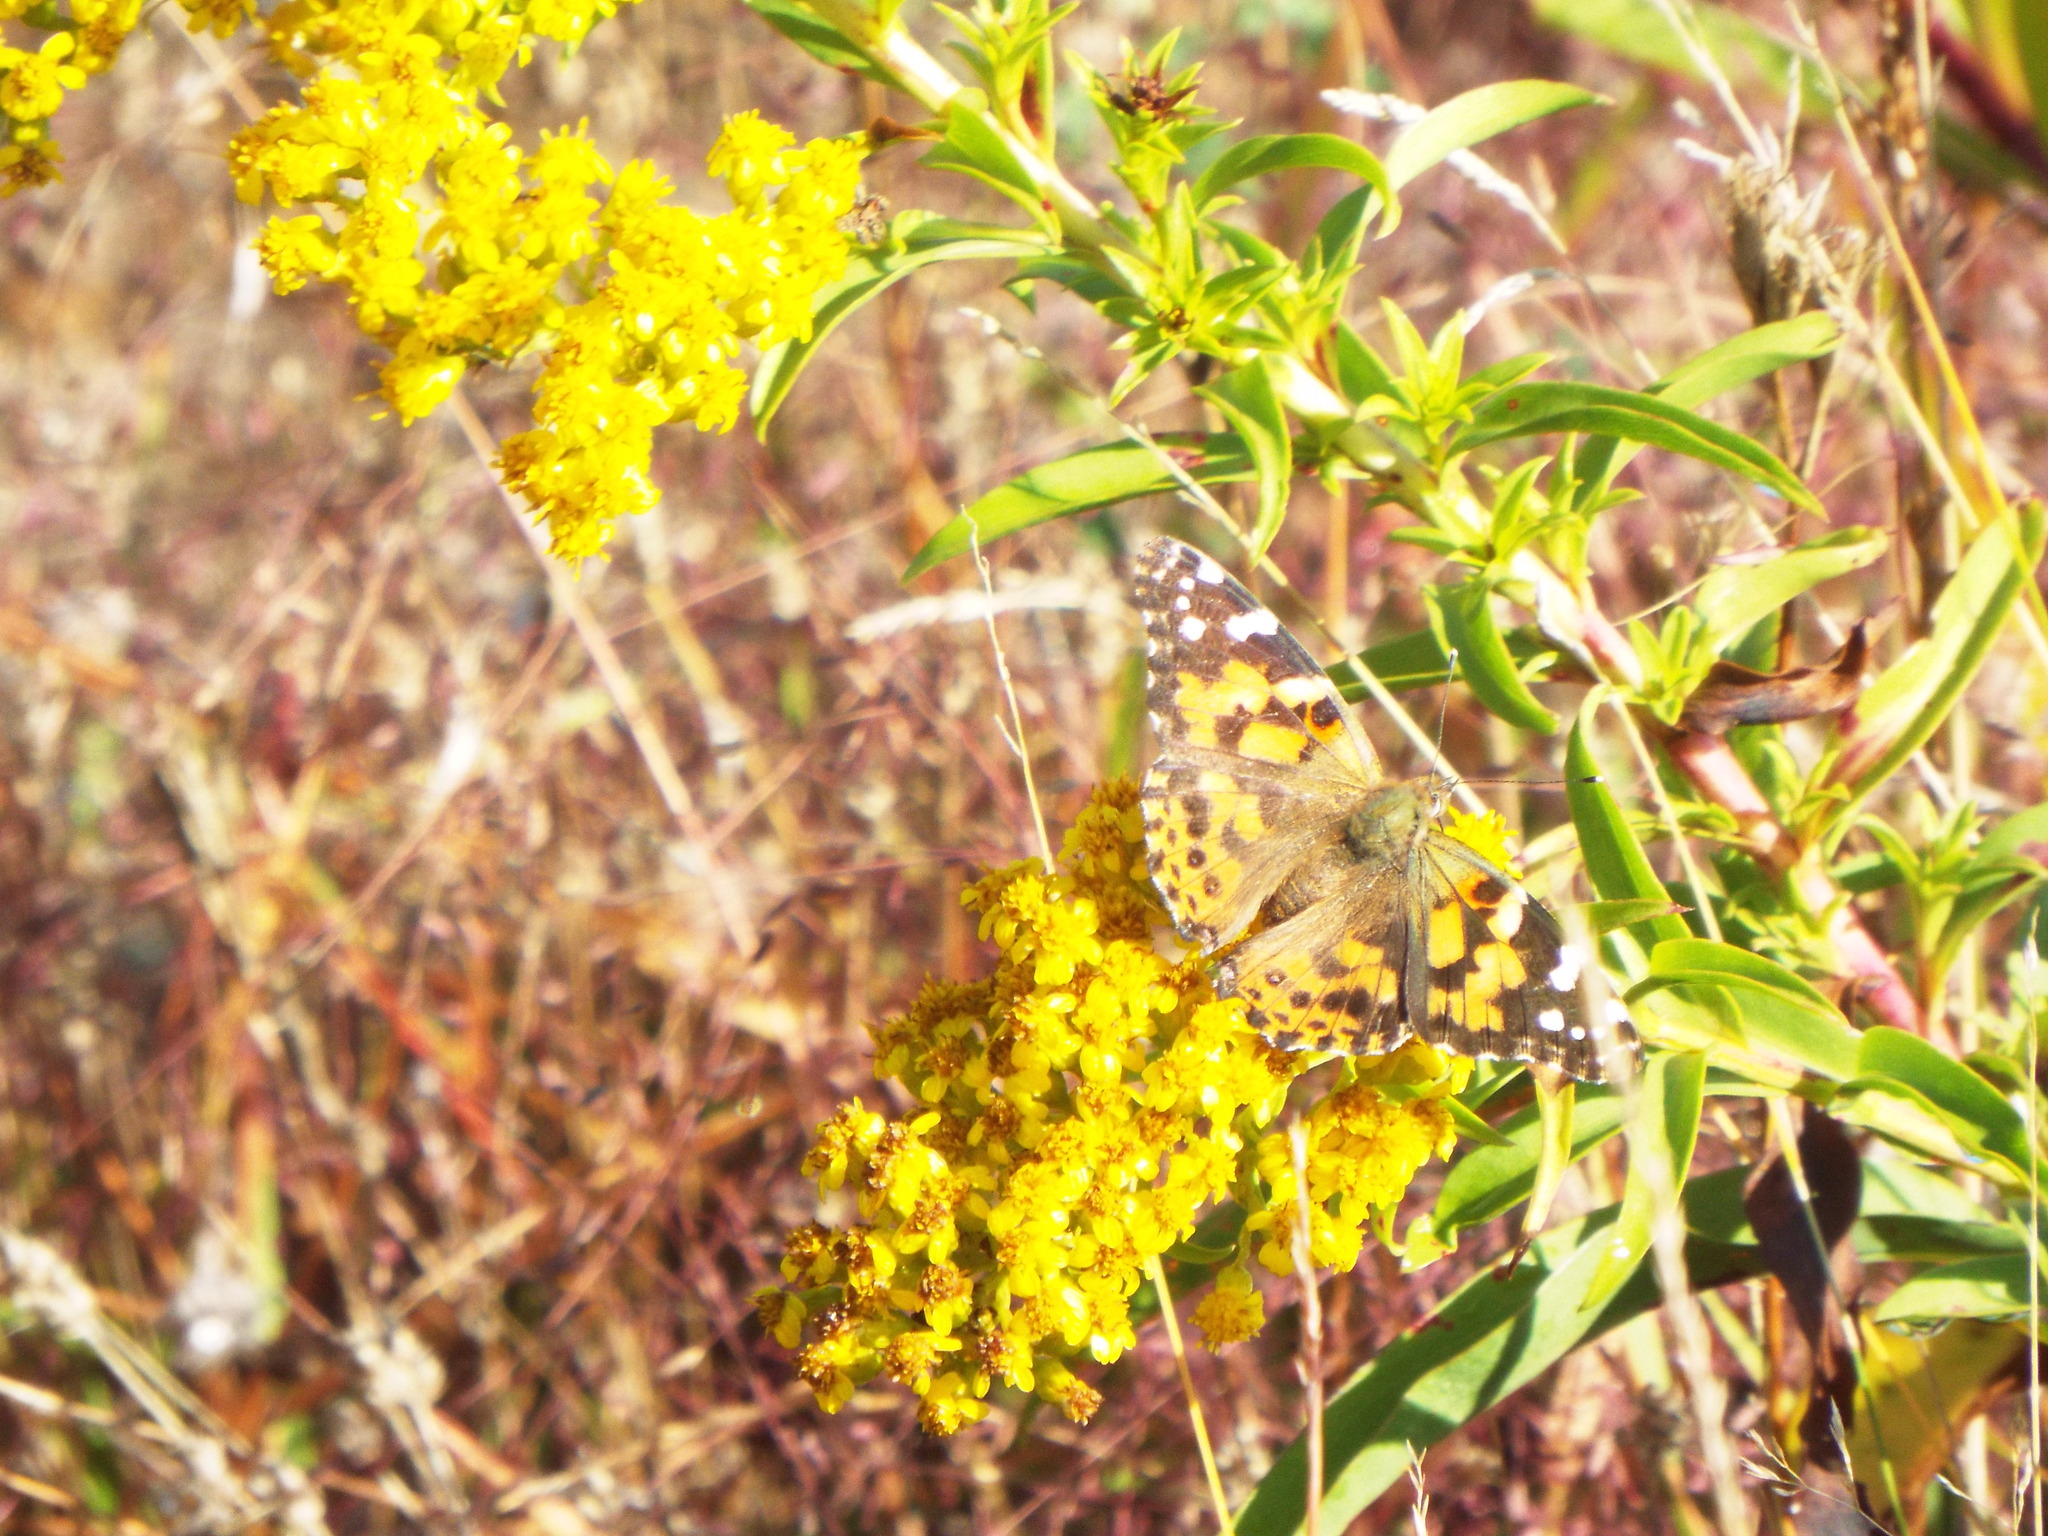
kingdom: Animalia
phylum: Arthropoda
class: Insecta
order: Lepidoptera
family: Nymphalidae
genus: Vanessa
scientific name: Vanessa cardui
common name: Painted lady
